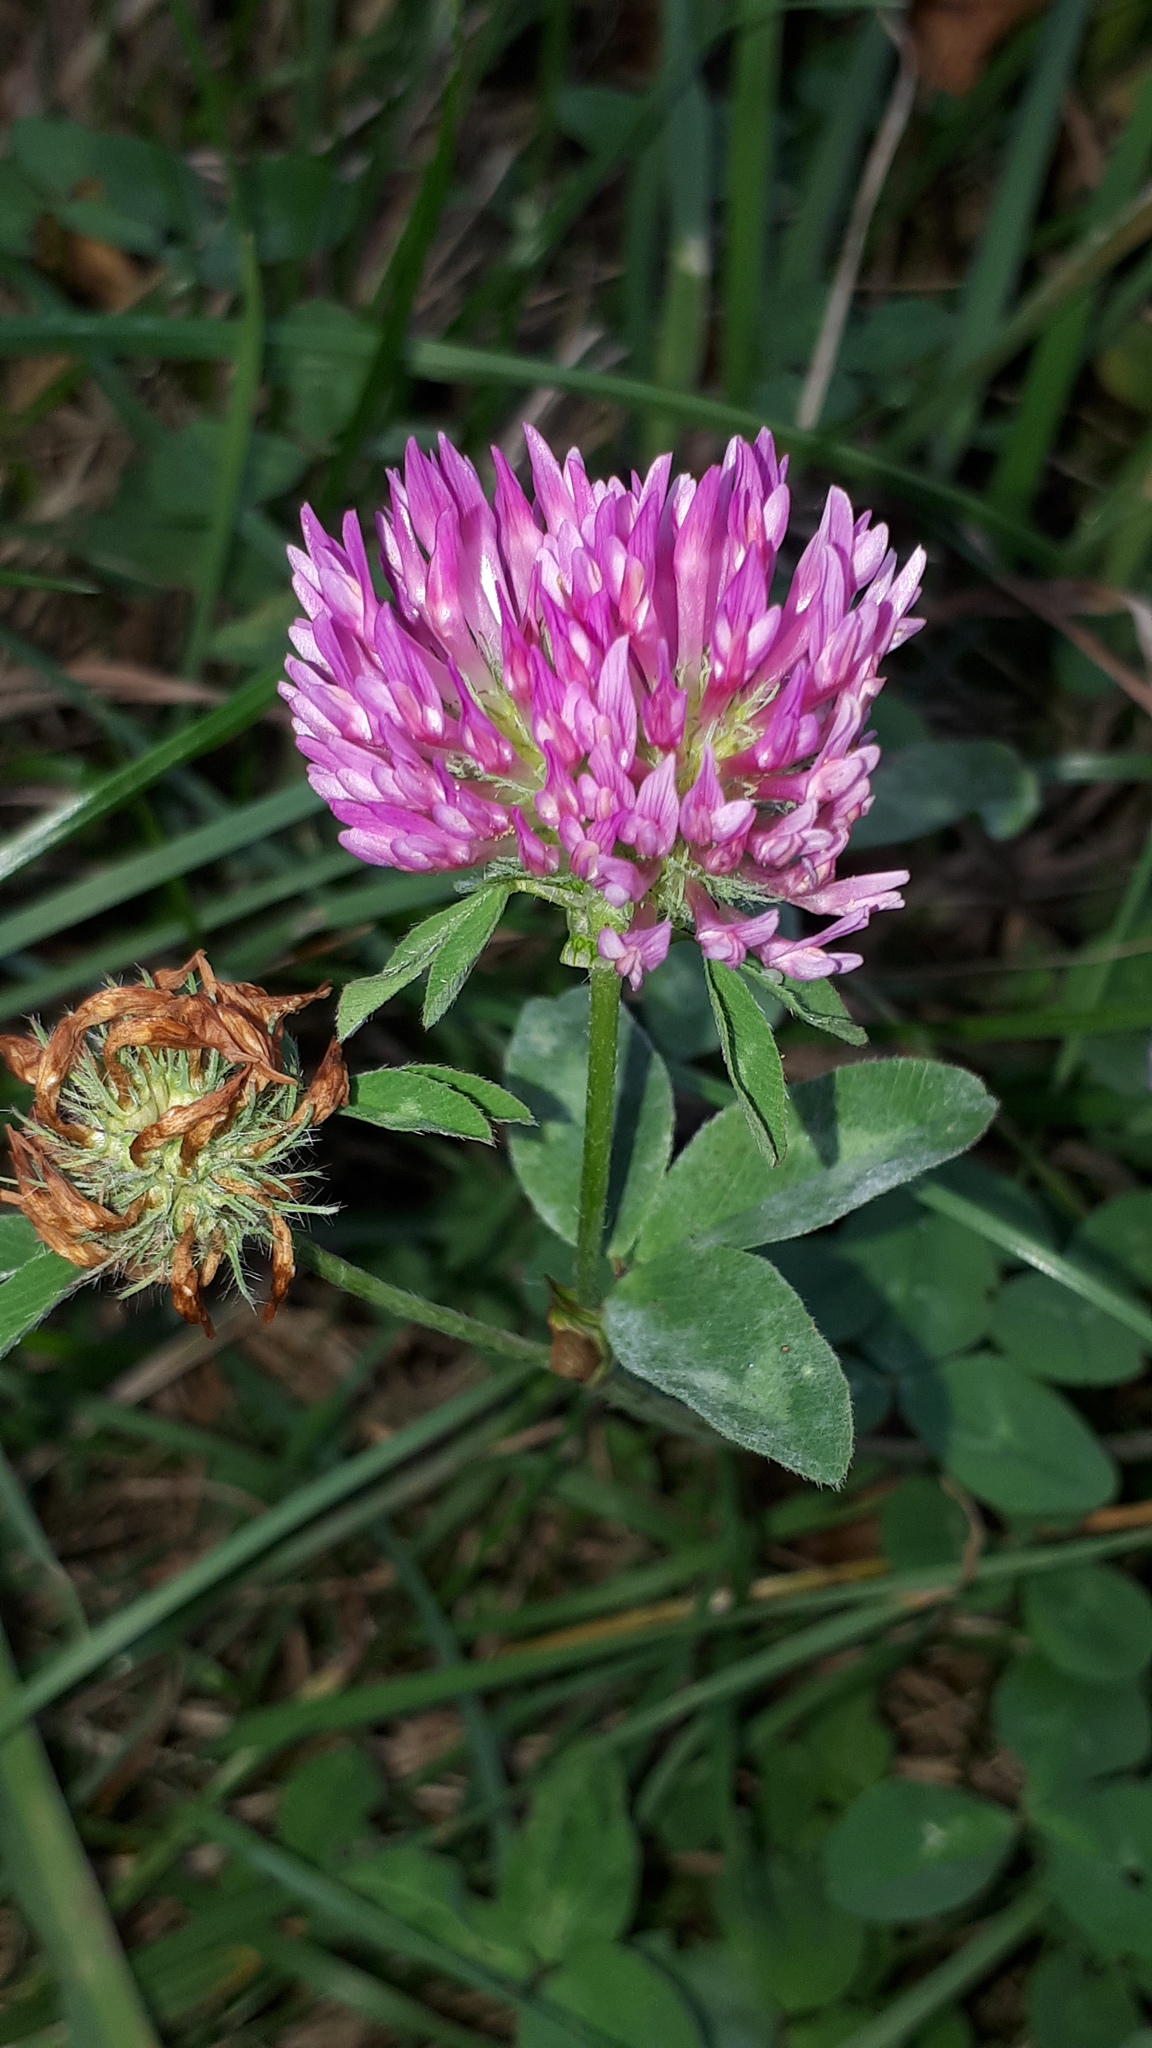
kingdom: Plantae
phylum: Tracheophyta
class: Magnoliopsida
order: Fabales
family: Fabaceae
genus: Trifolium
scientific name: Trifolium pratense
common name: Red clover
